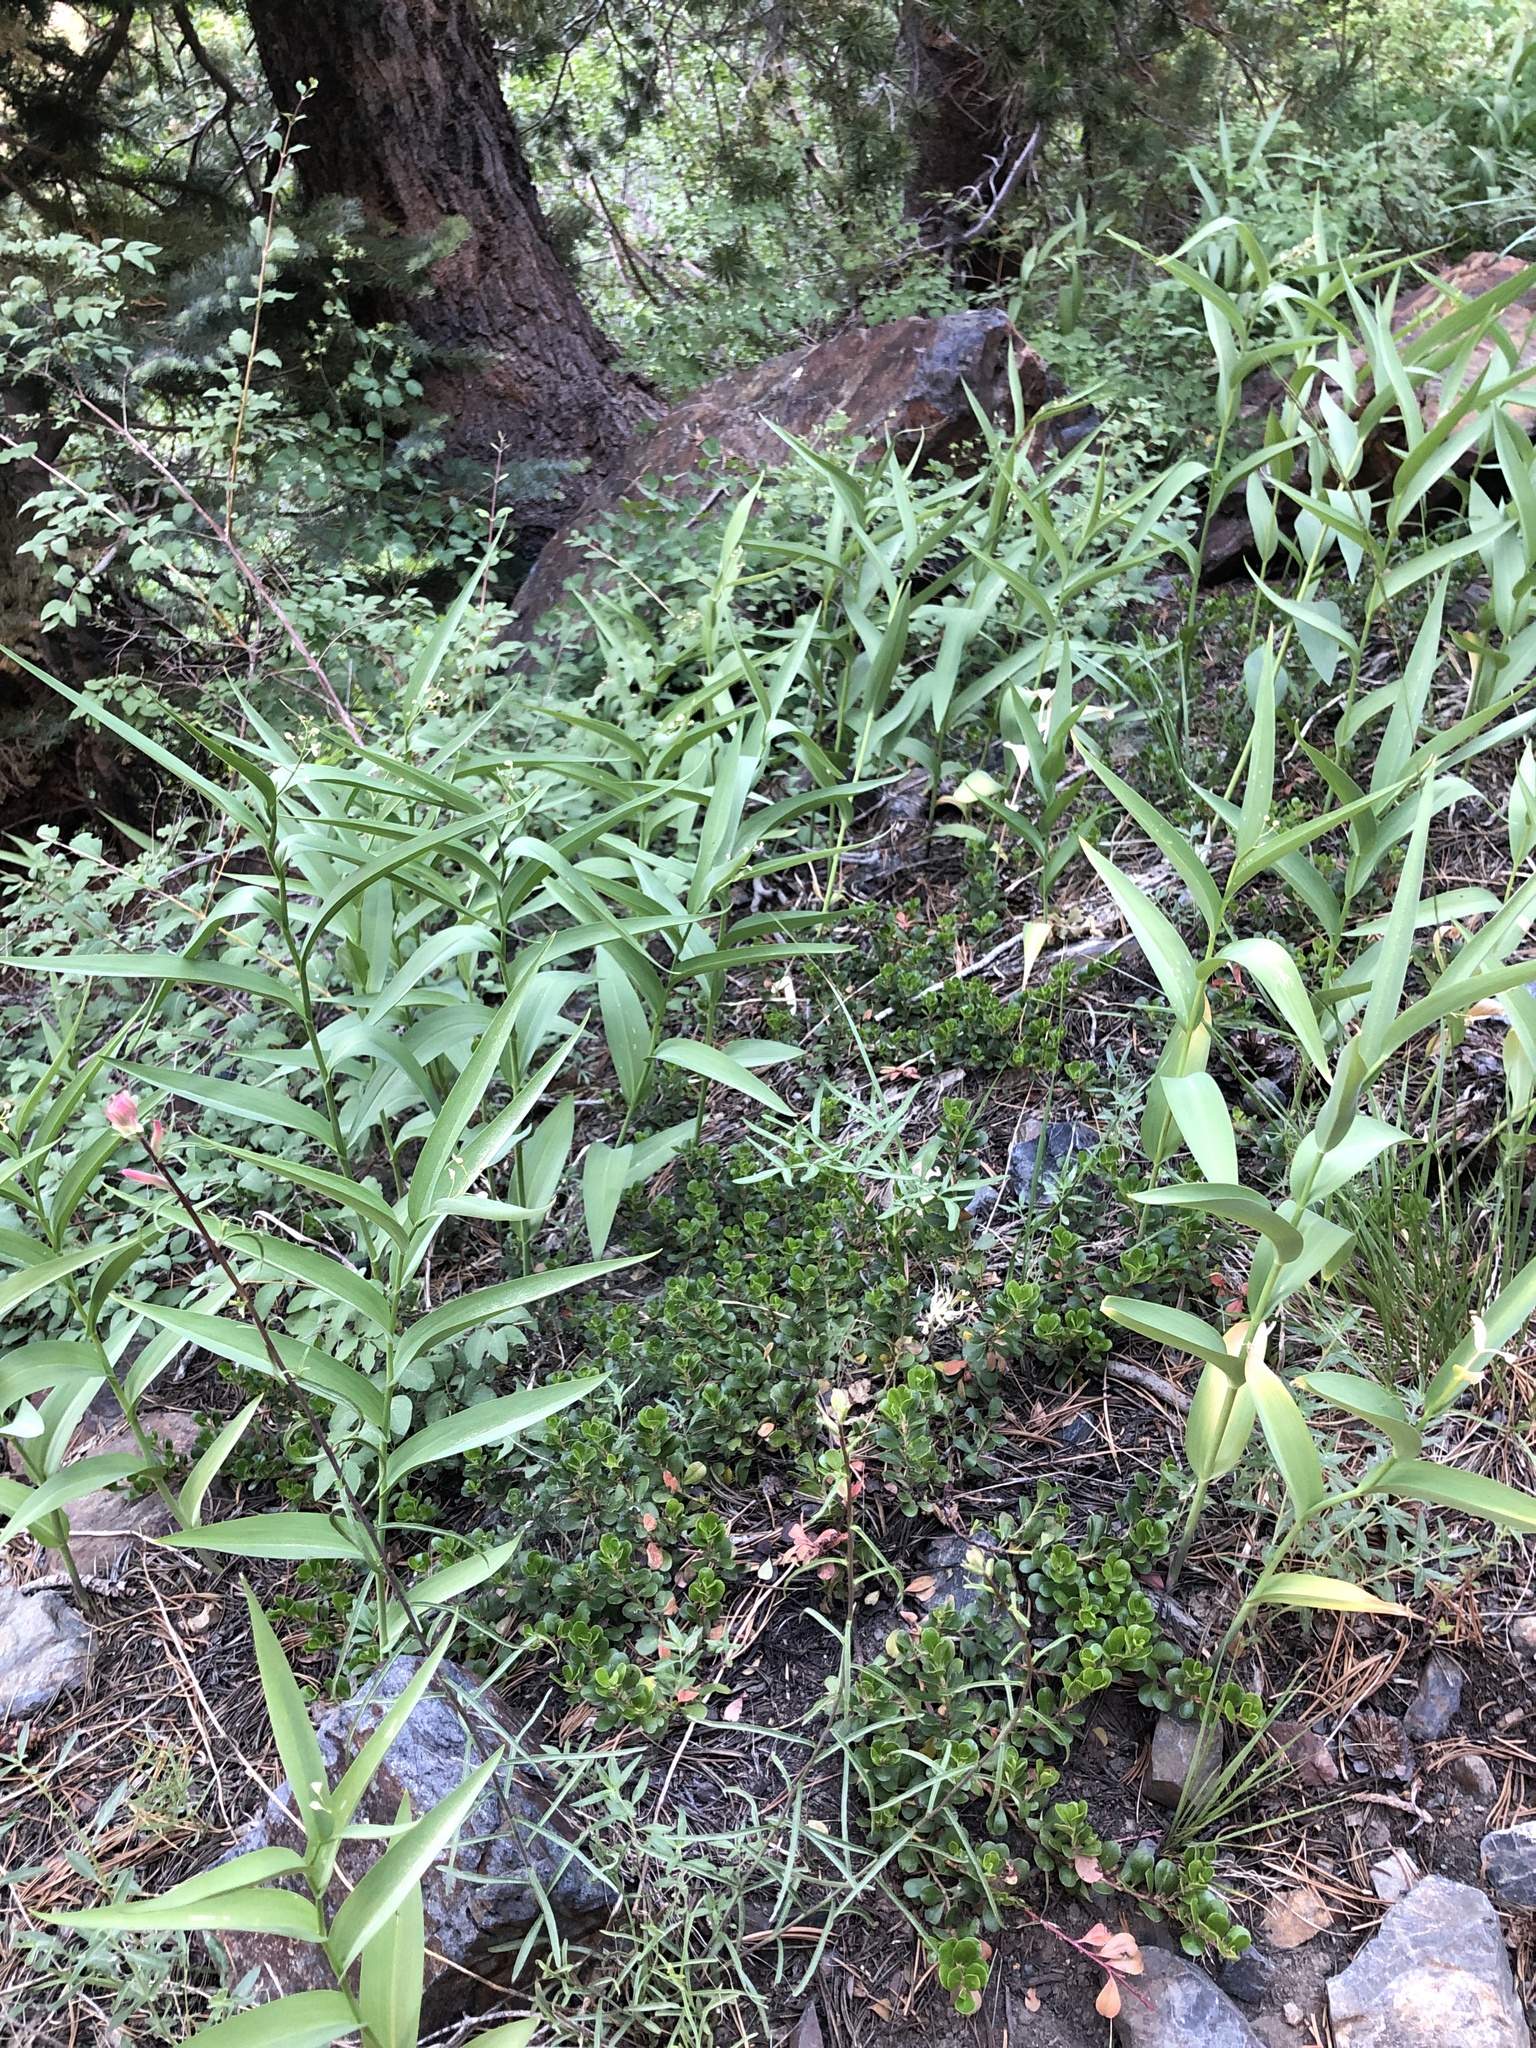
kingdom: Plantae
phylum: Tracheophyta
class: Magnoliopsida
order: Ericales
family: Ericaceae
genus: Arctostaphylos
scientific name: Arctostaphylos uva-ursi
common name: Bearberry
